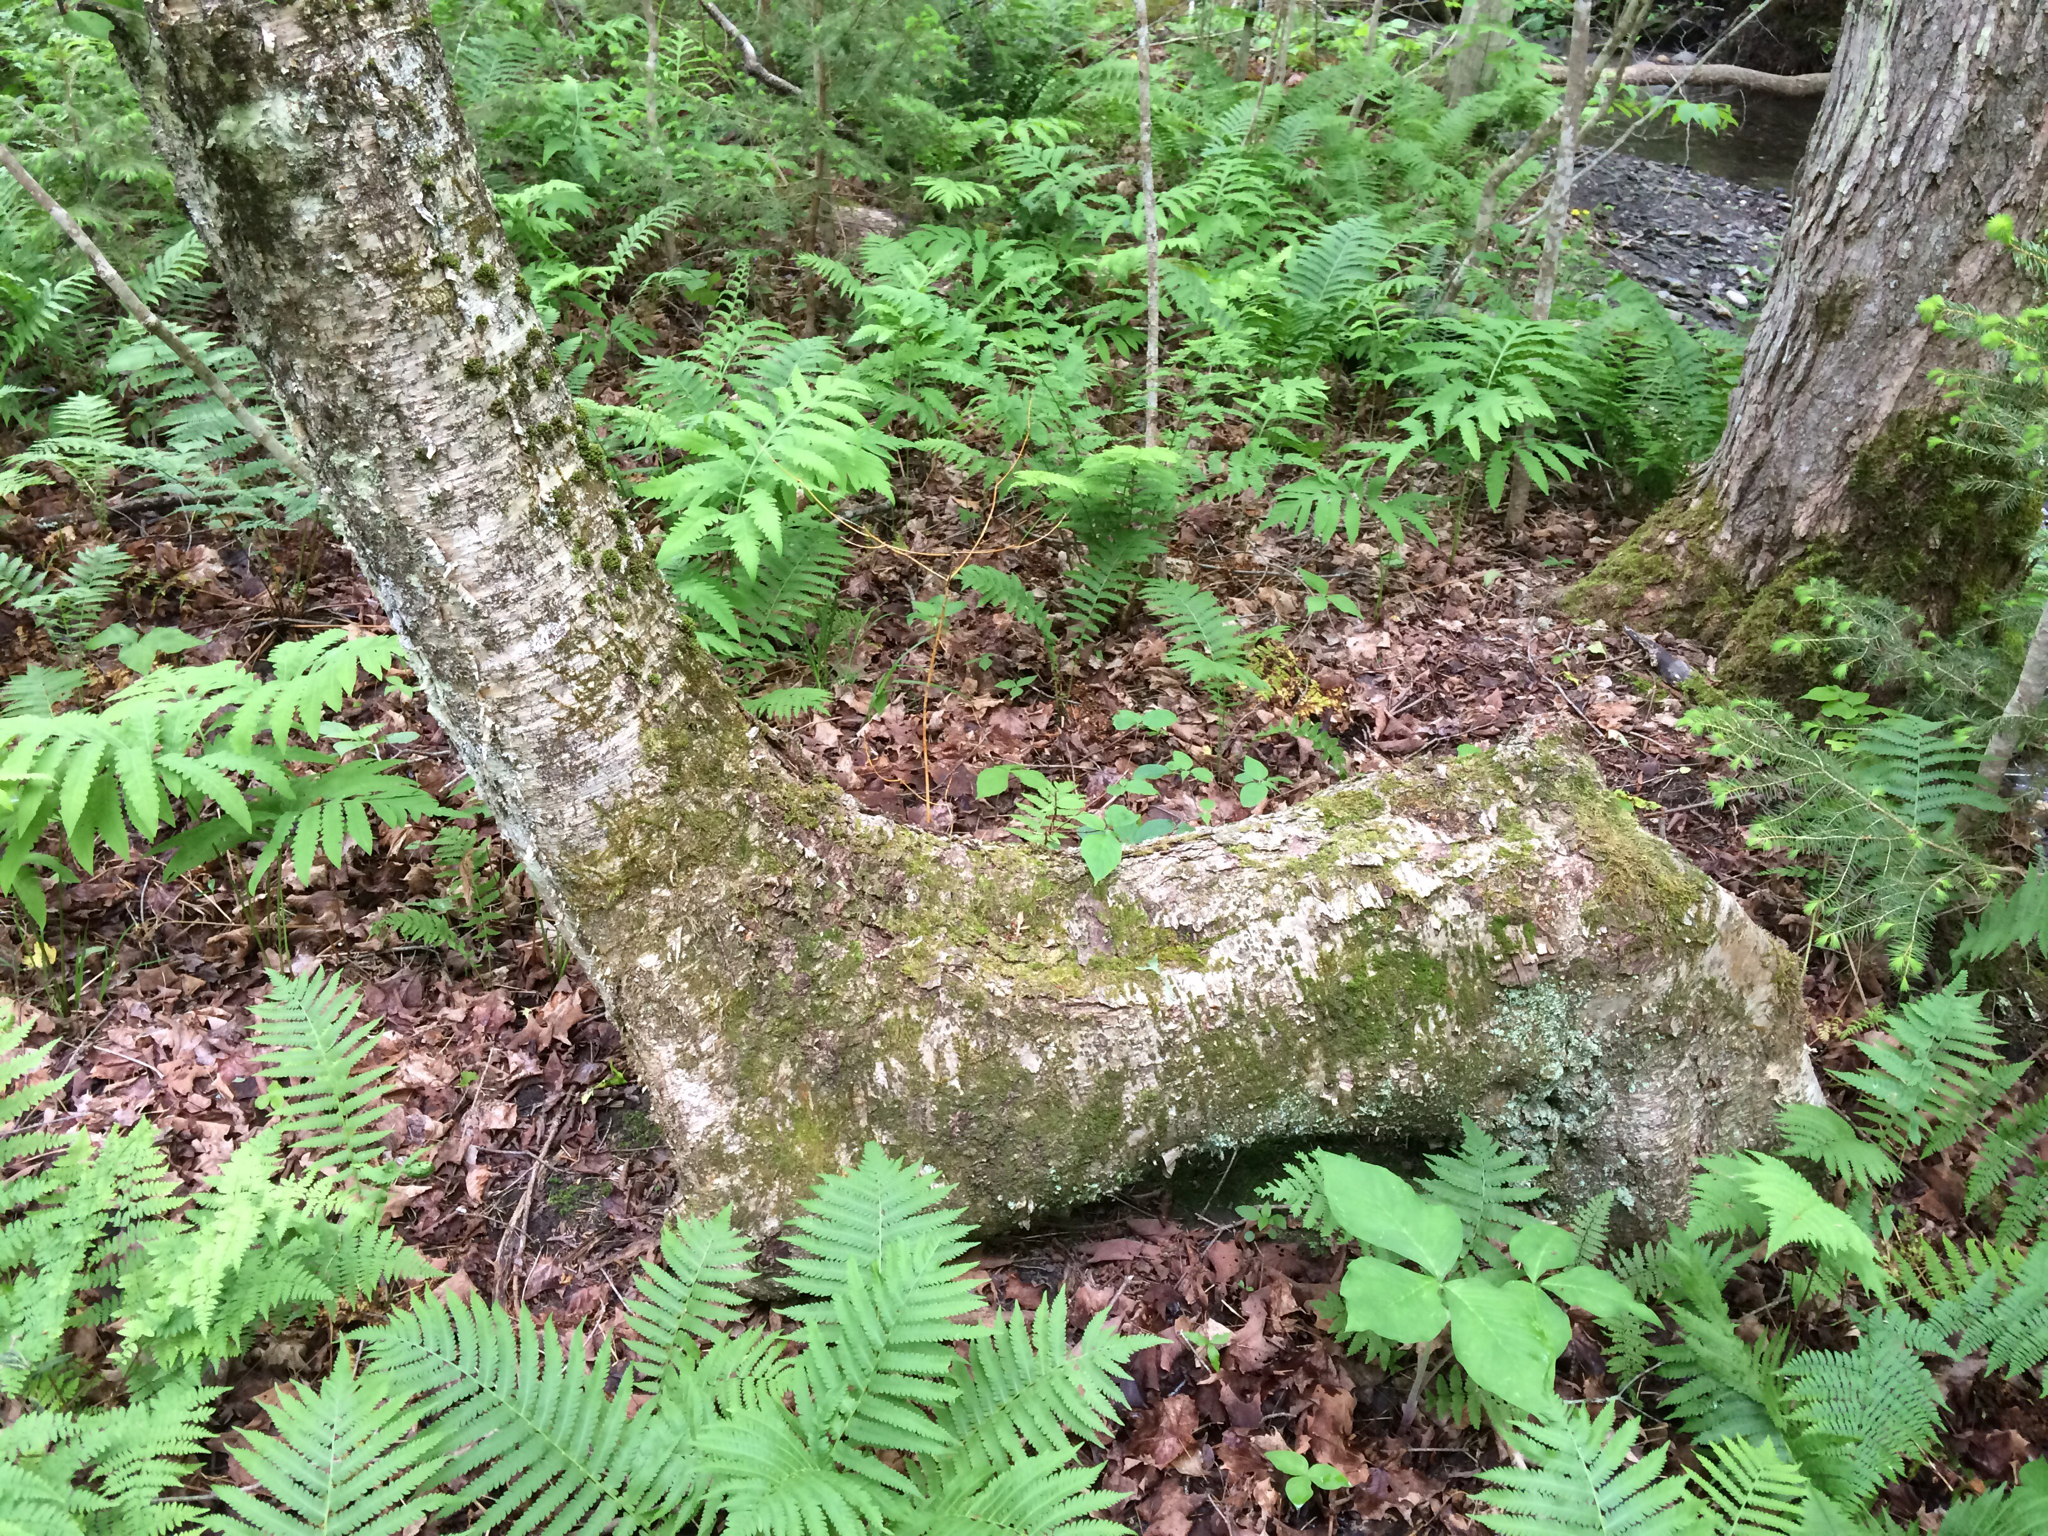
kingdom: Plantae
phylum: Tracheophyta
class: Magnoliopsida
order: Fagales
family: Betulaceae
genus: Betula
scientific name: Betula alleghaniensis
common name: Yellow birch
